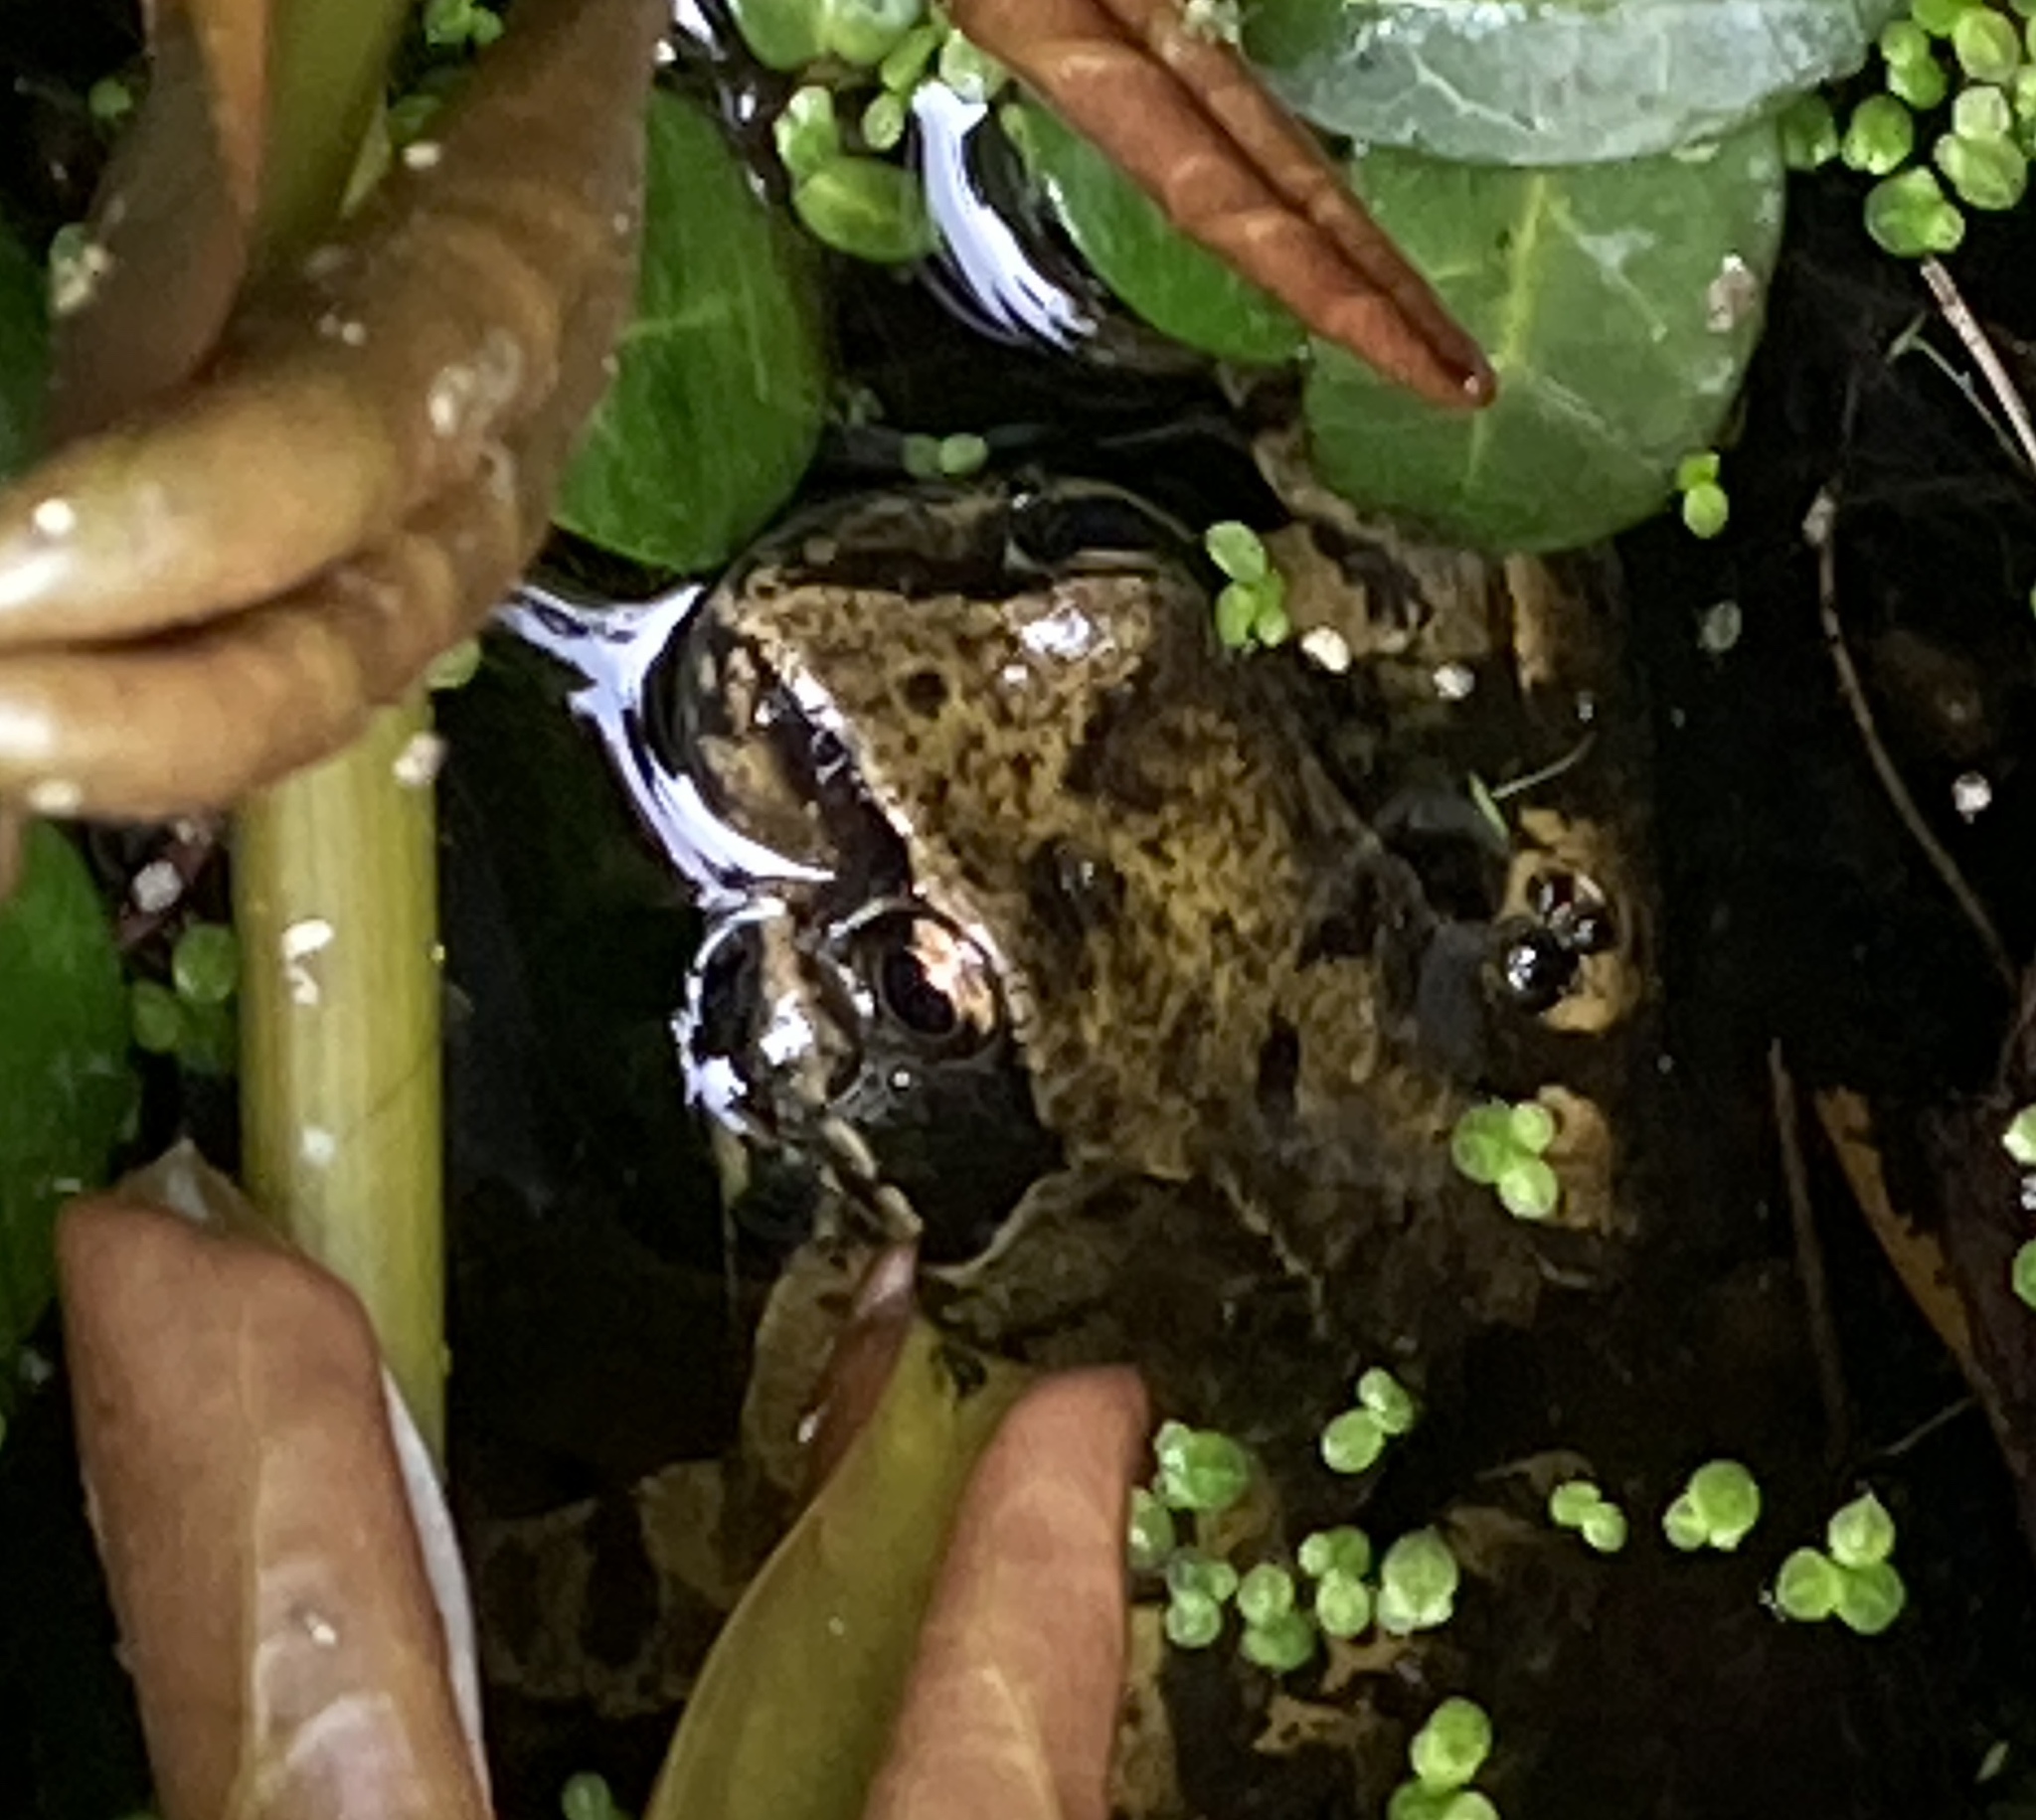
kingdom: Animalia
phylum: Chordata
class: Amphibia
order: Anura
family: Ranidae
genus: Rana
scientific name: Rana temporaria
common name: Common frog
